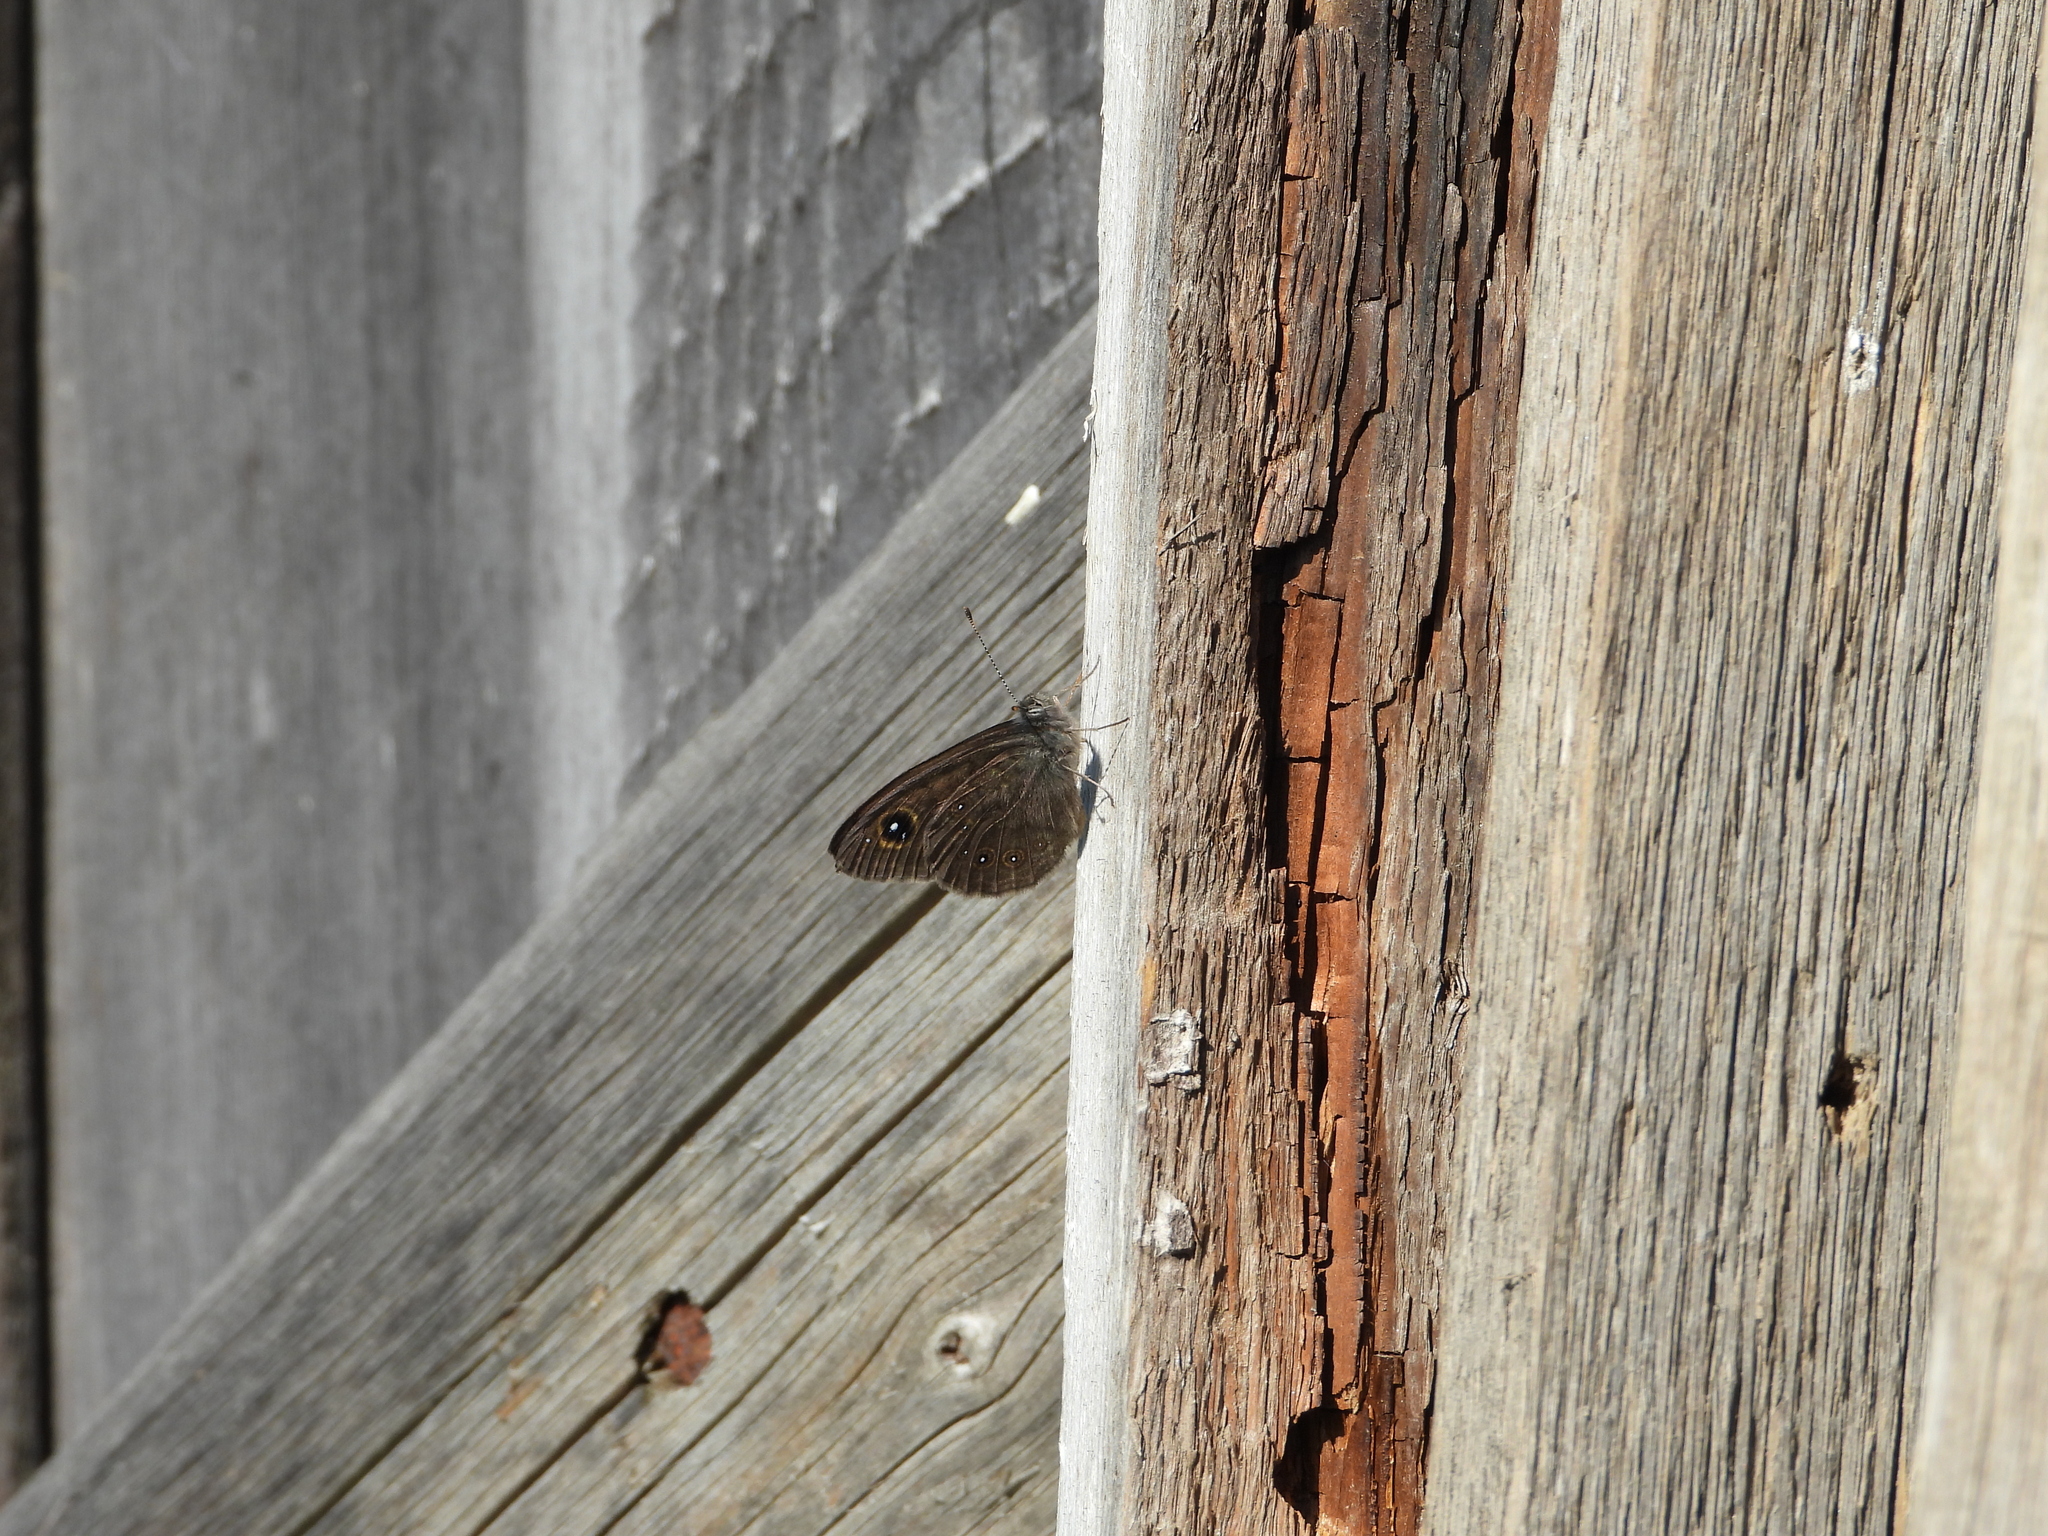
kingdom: Animalia
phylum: Arthropoda
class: Insecta
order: Lepidoptera
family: Nymphalidae
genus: Pararge
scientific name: Pararge Lasiommata maera
